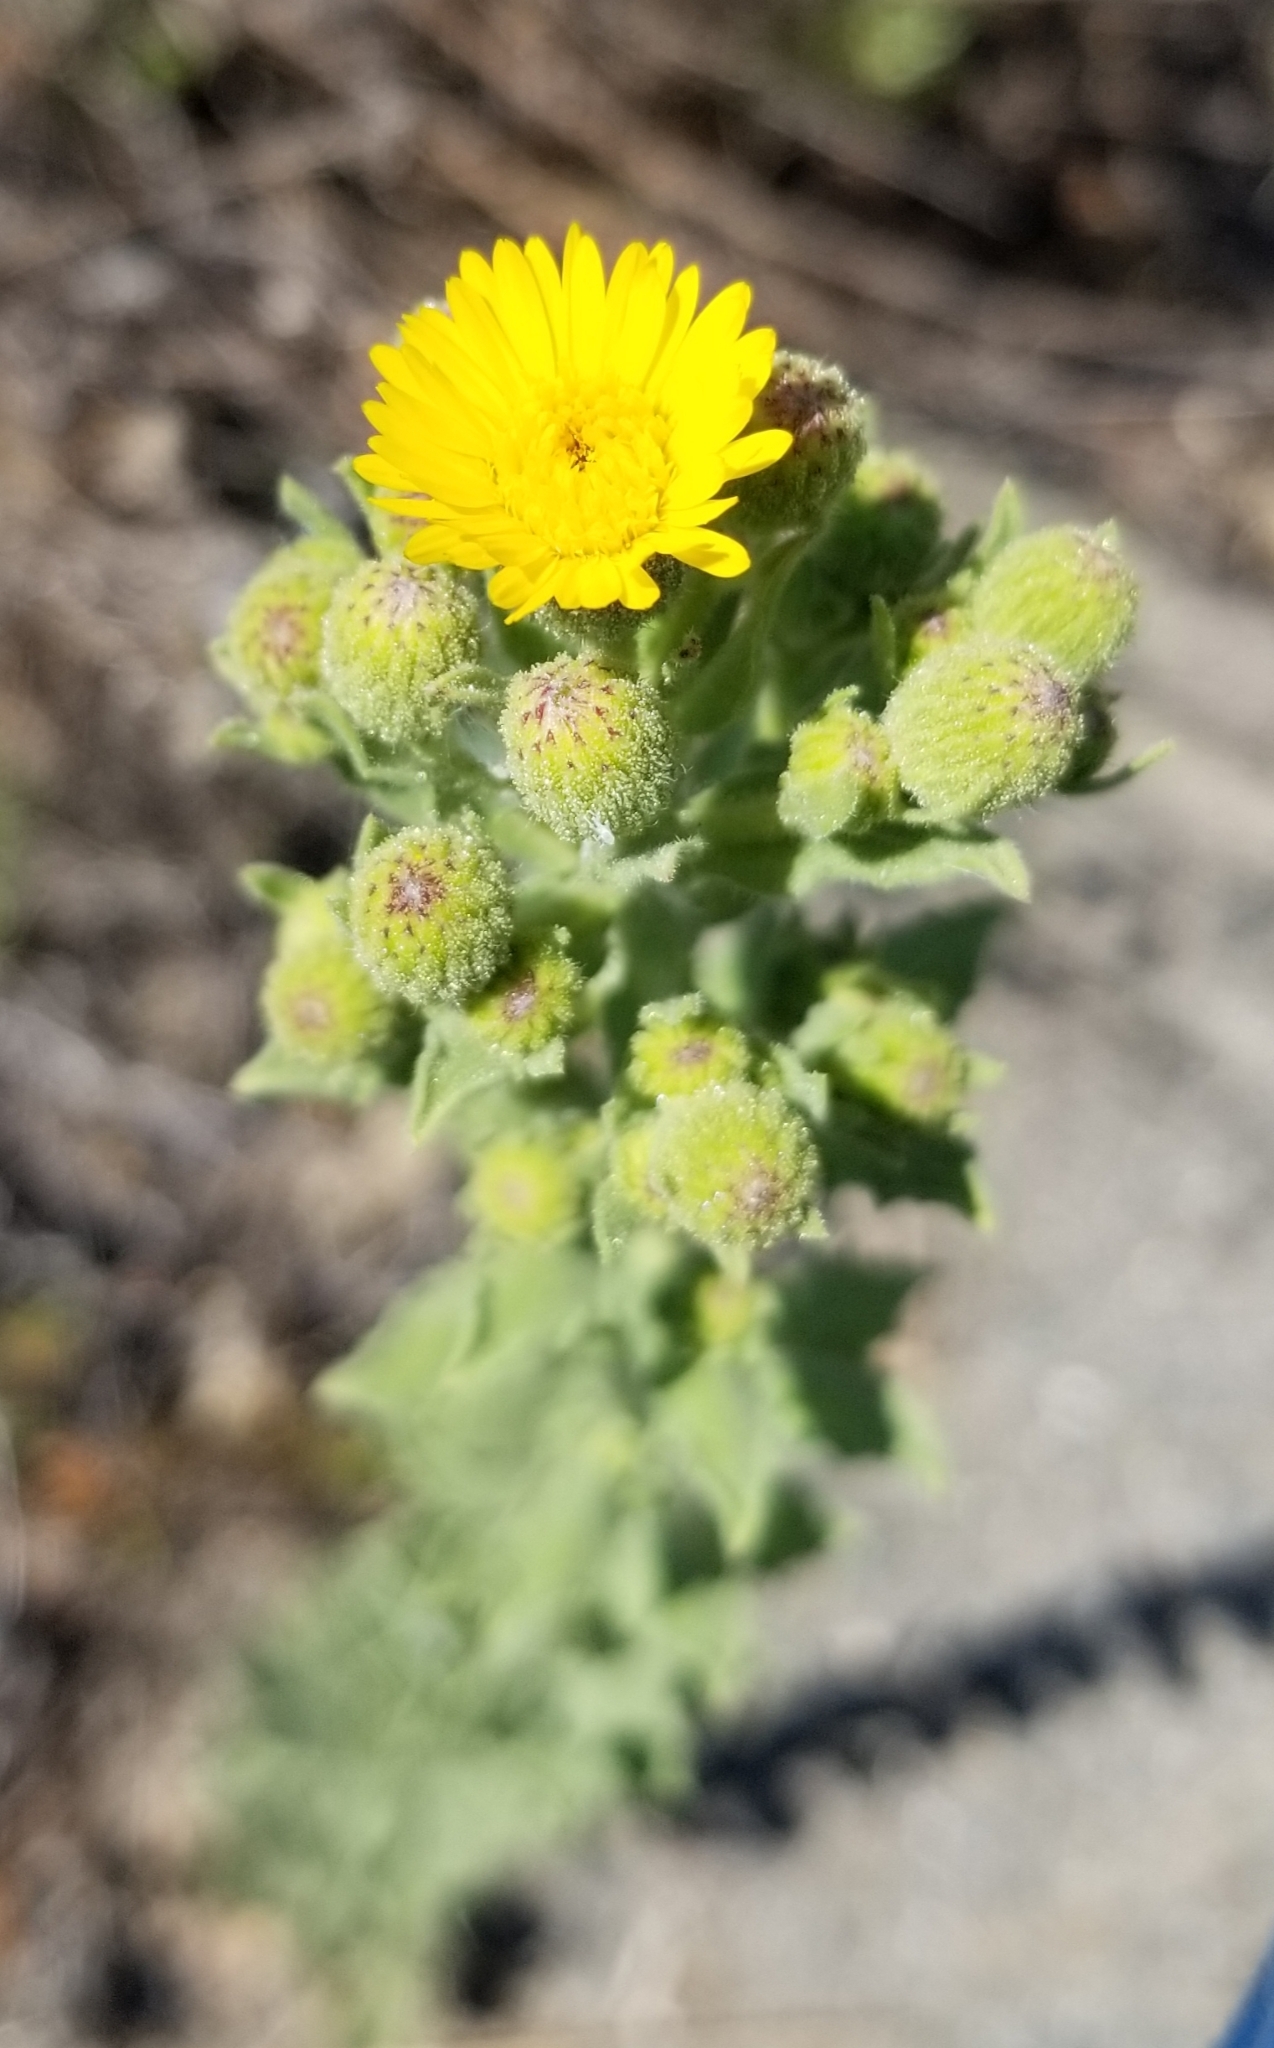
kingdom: Plantae
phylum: Tracheophyta
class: Magnoliopsida
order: Asterales
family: Asteraceae
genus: Heterotheca
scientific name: Heterotheca grandiflora
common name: Telegraphweed
